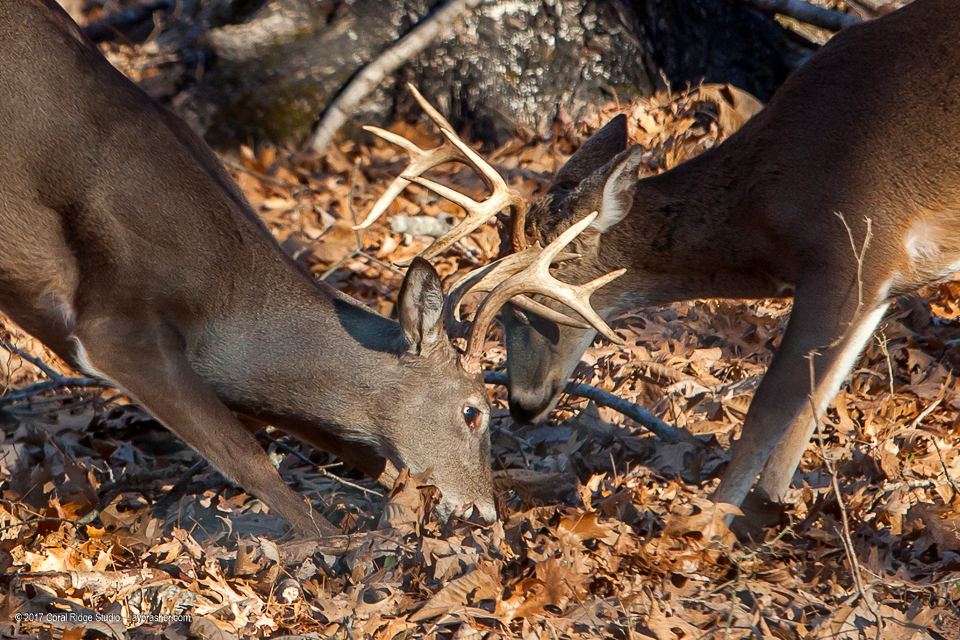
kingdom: Animalia
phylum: Chordata
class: Mammalia
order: Artiodactyla
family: Cervidae
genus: Odocoileus
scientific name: Odocoileus virginianus
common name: White-tailed deer
